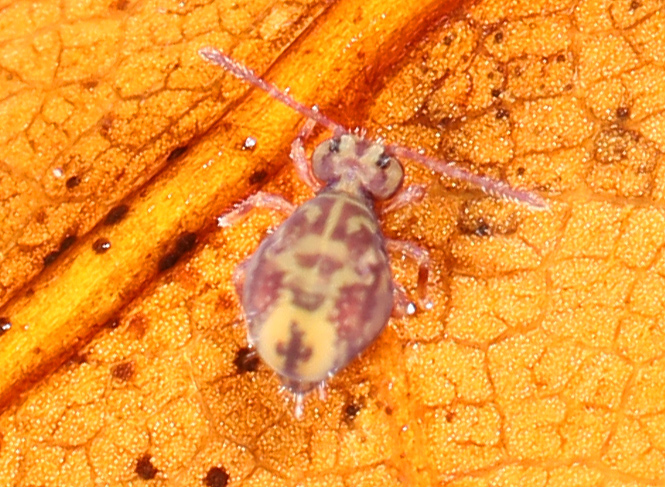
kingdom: Animalia
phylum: Arthropoda
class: Collembola
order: Symphypleona
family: Dicyrtomidae
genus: Dicyrtomina
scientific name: Dicyrtomina ornata
